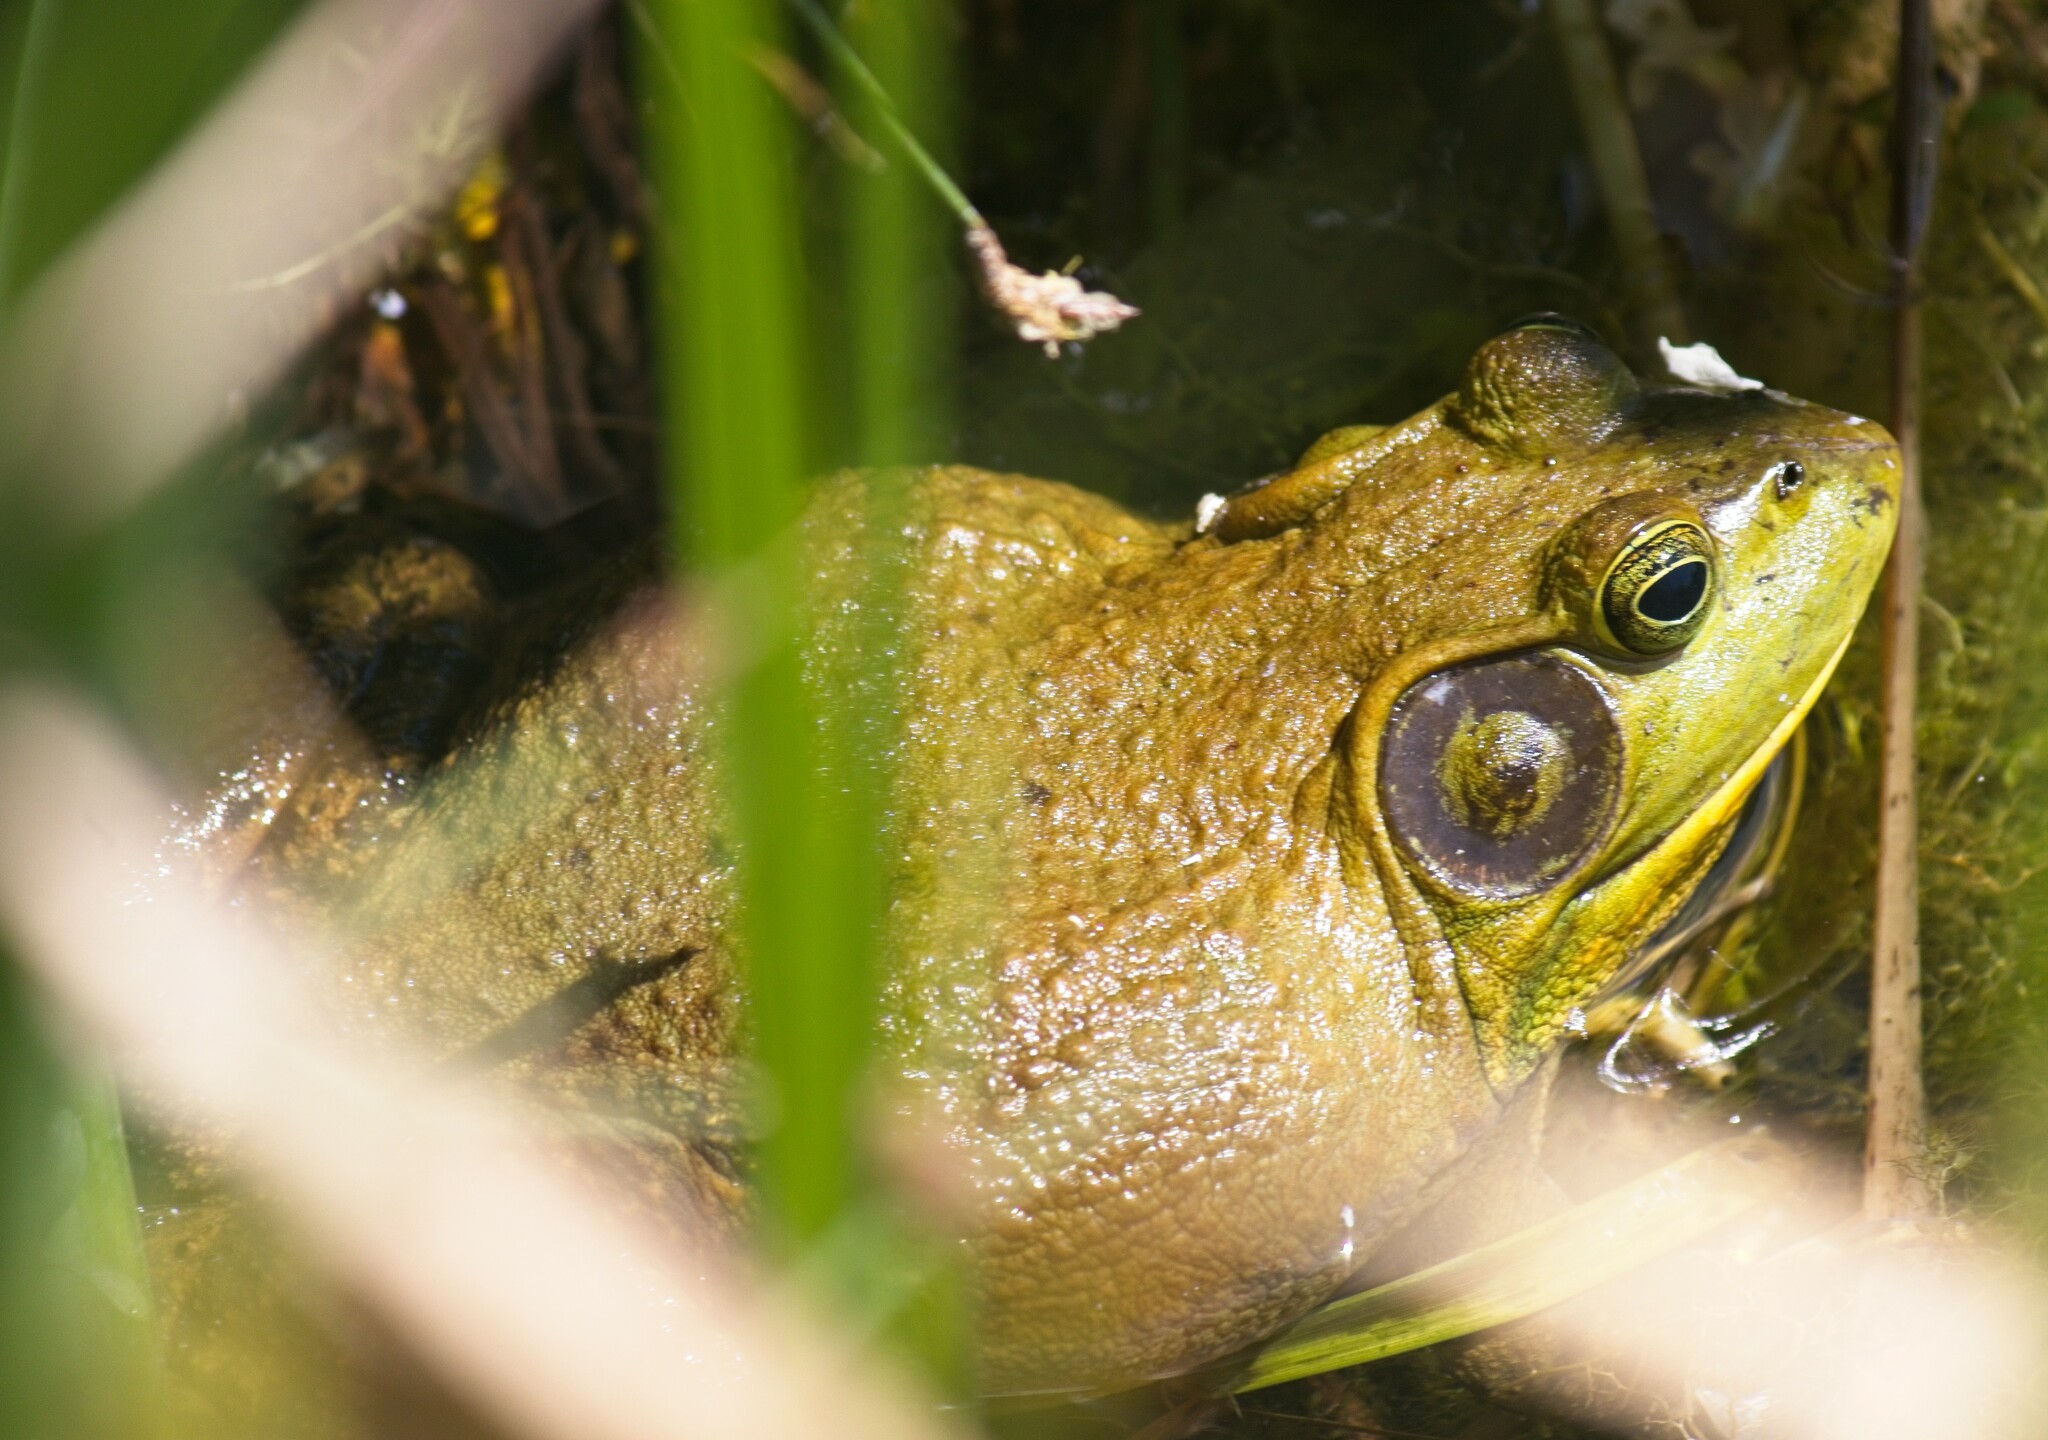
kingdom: Animalia
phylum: Chordata
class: Amphibia
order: Anura
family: Ranidae
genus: Lithobates
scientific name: Lithobates catesbeianus
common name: American bullfrog
